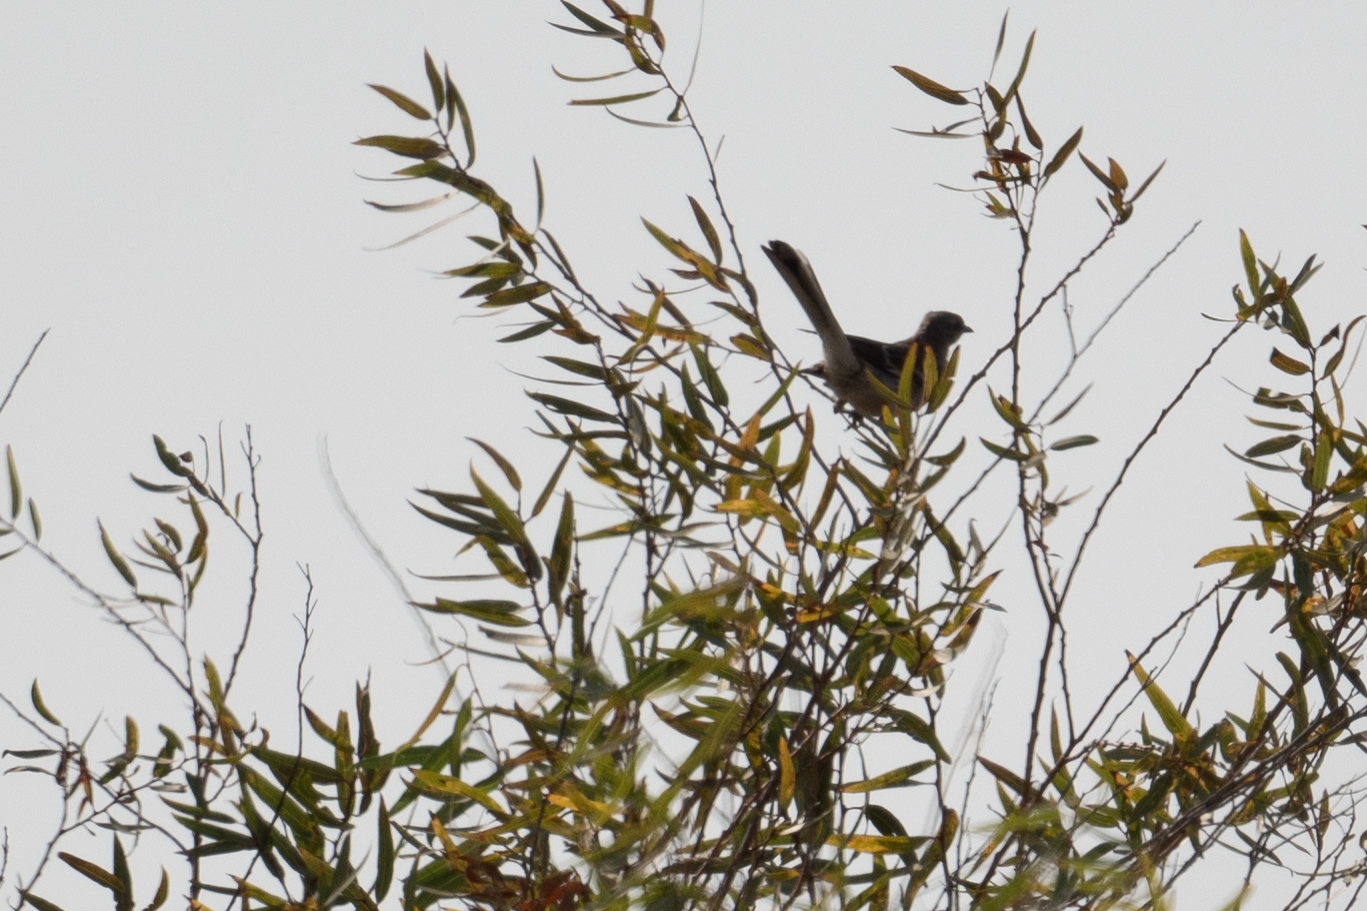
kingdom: Animalia
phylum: Chordata
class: Aves
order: Passeriformes
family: Mimidae
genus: Mimus
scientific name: Mimus polyglottos
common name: Northern mockingbird
